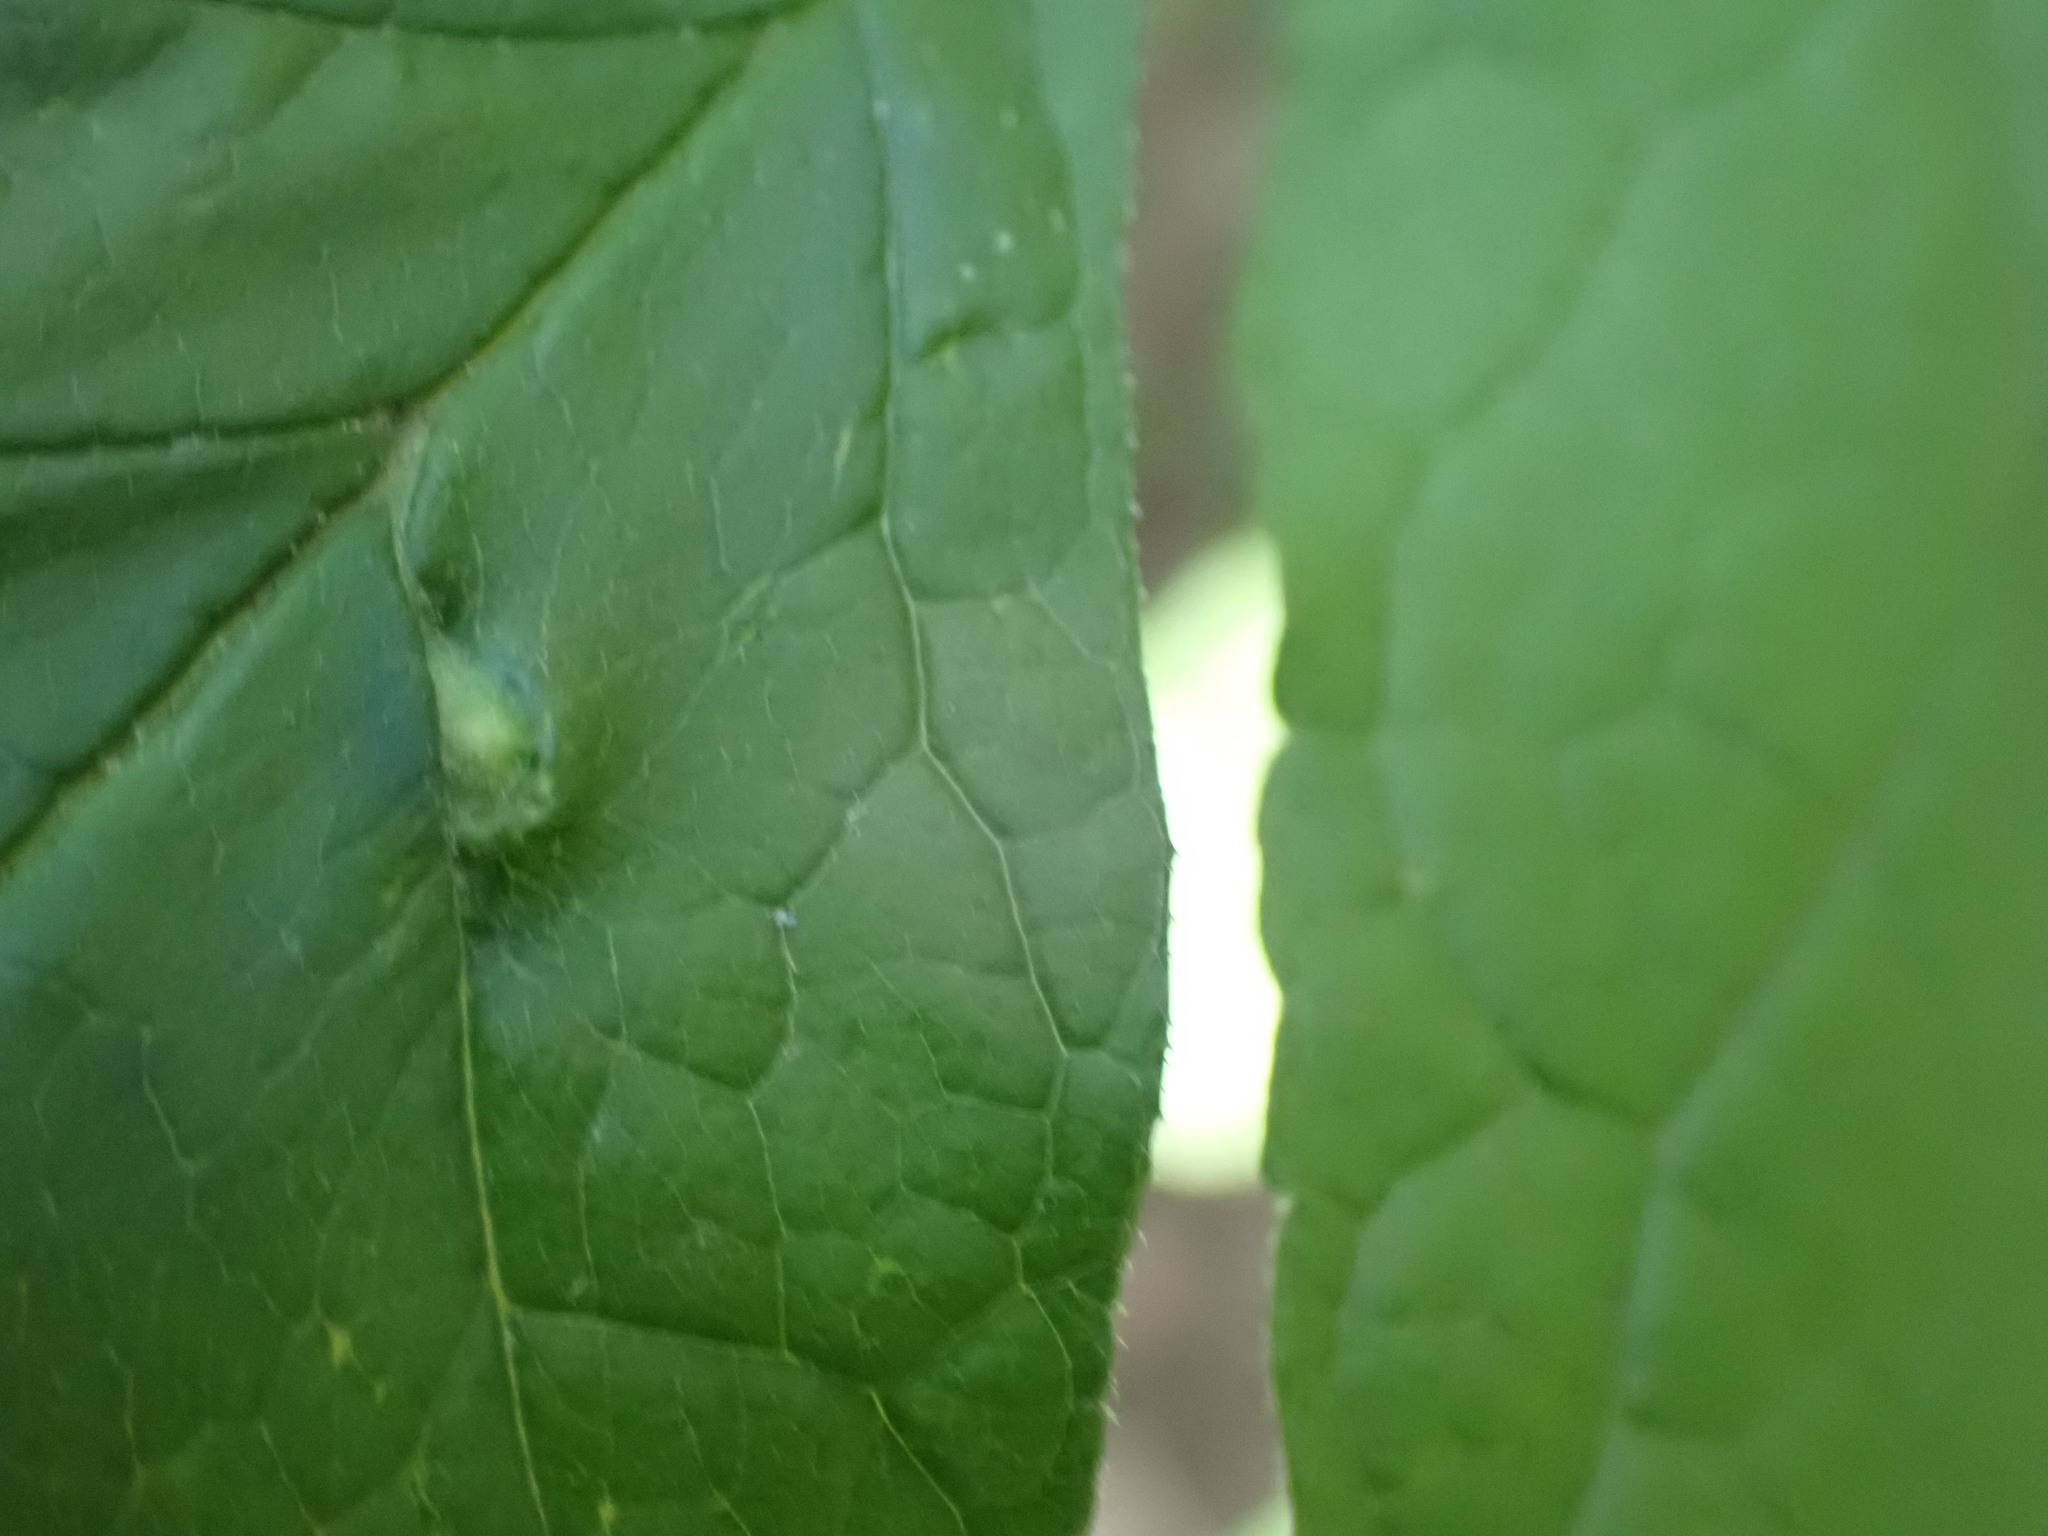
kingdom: Animalia
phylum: Arthropoda
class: Arachnida
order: Trombidiformes
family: Eriophyidae
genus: Aceria
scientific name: Aceria fraxinicola
